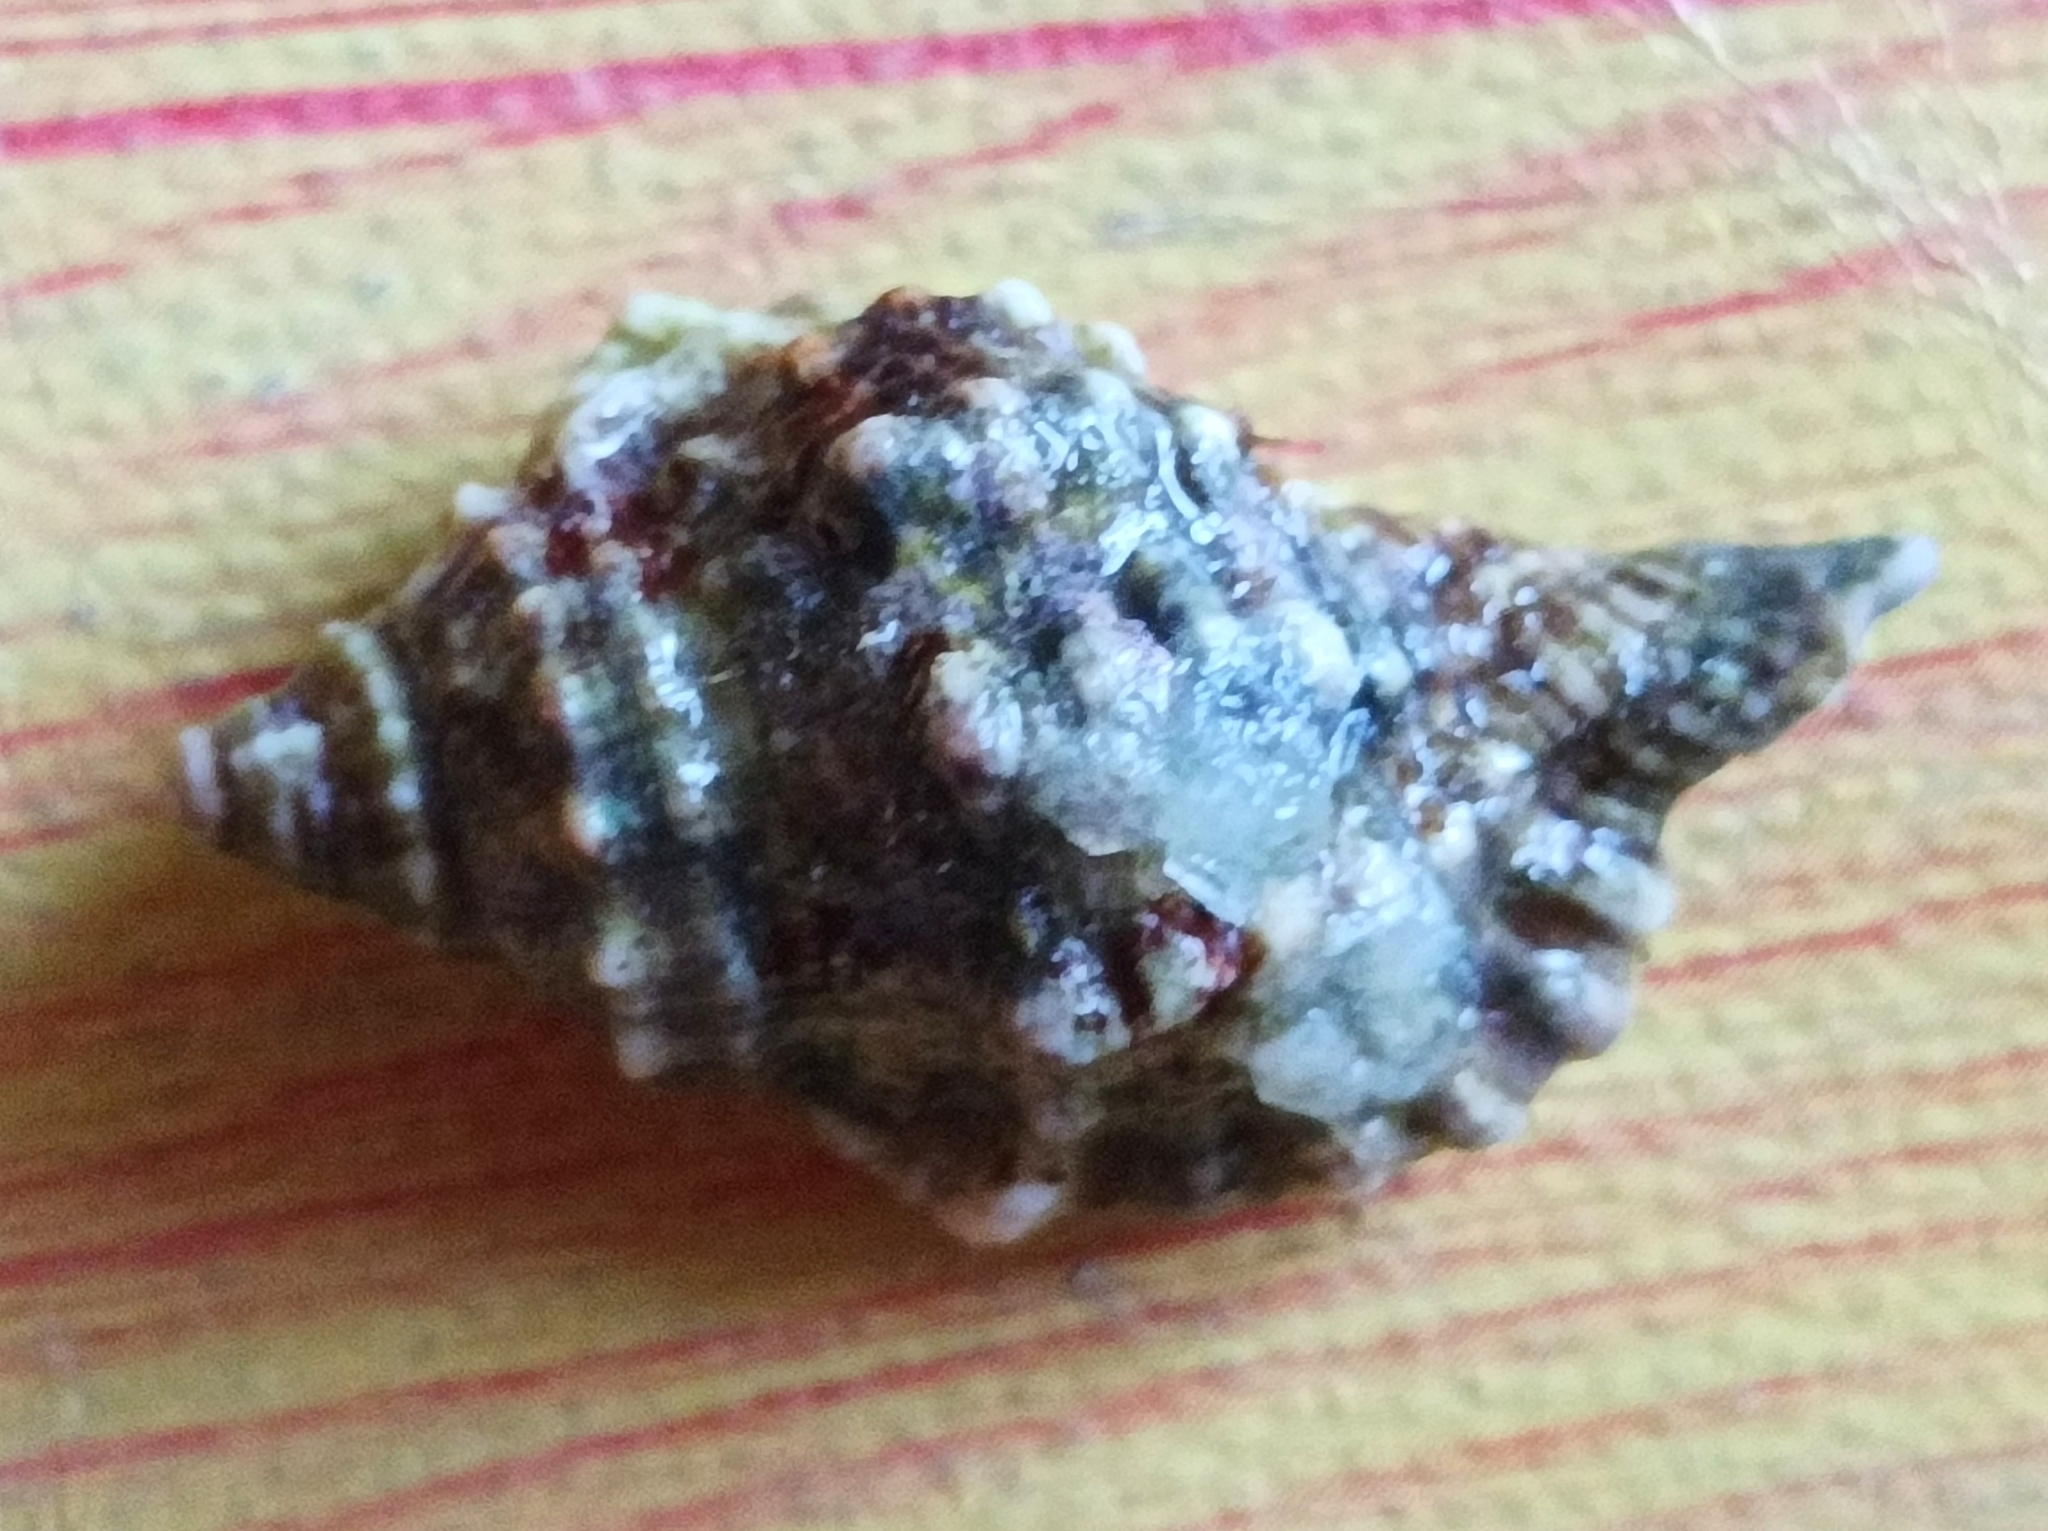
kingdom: Animalia
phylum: Mollusca
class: Gastropoda
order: Littorinimorpha
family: Cymatiidae
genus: Gutturnium
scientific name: Gutturnium muricinum
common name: Knobbed triton
